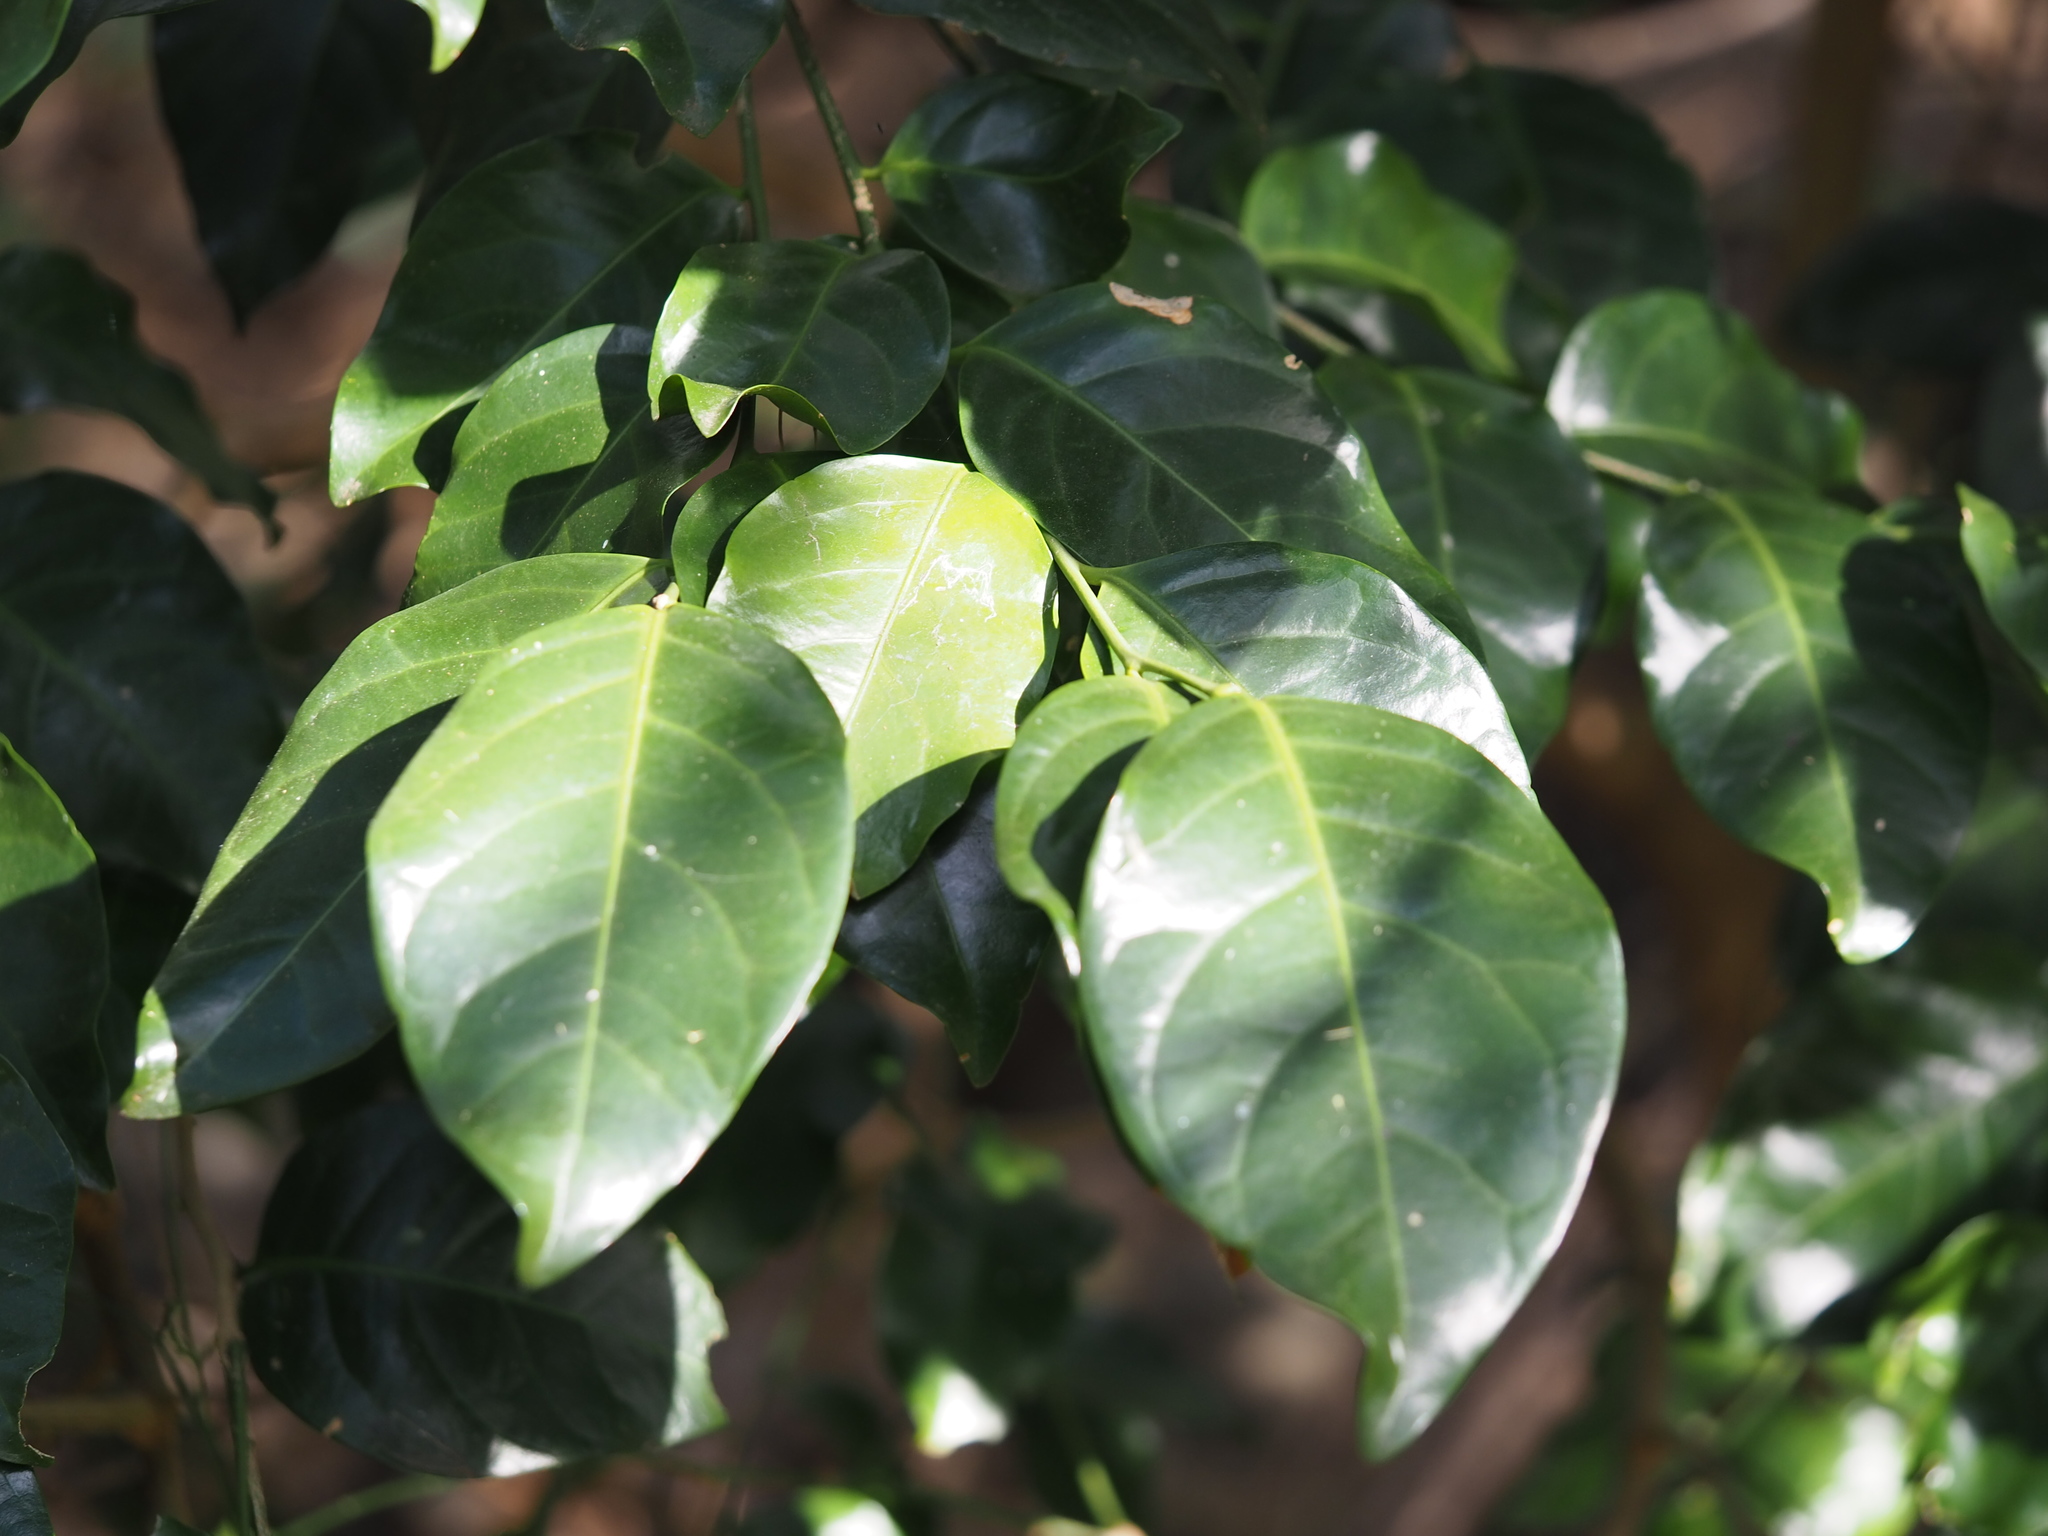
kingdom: Plantae
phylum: Tracheophyta
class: Magnoliopsida
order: Santalales
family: Opiliaceae
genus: Champereia
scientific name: Champereia manillana
